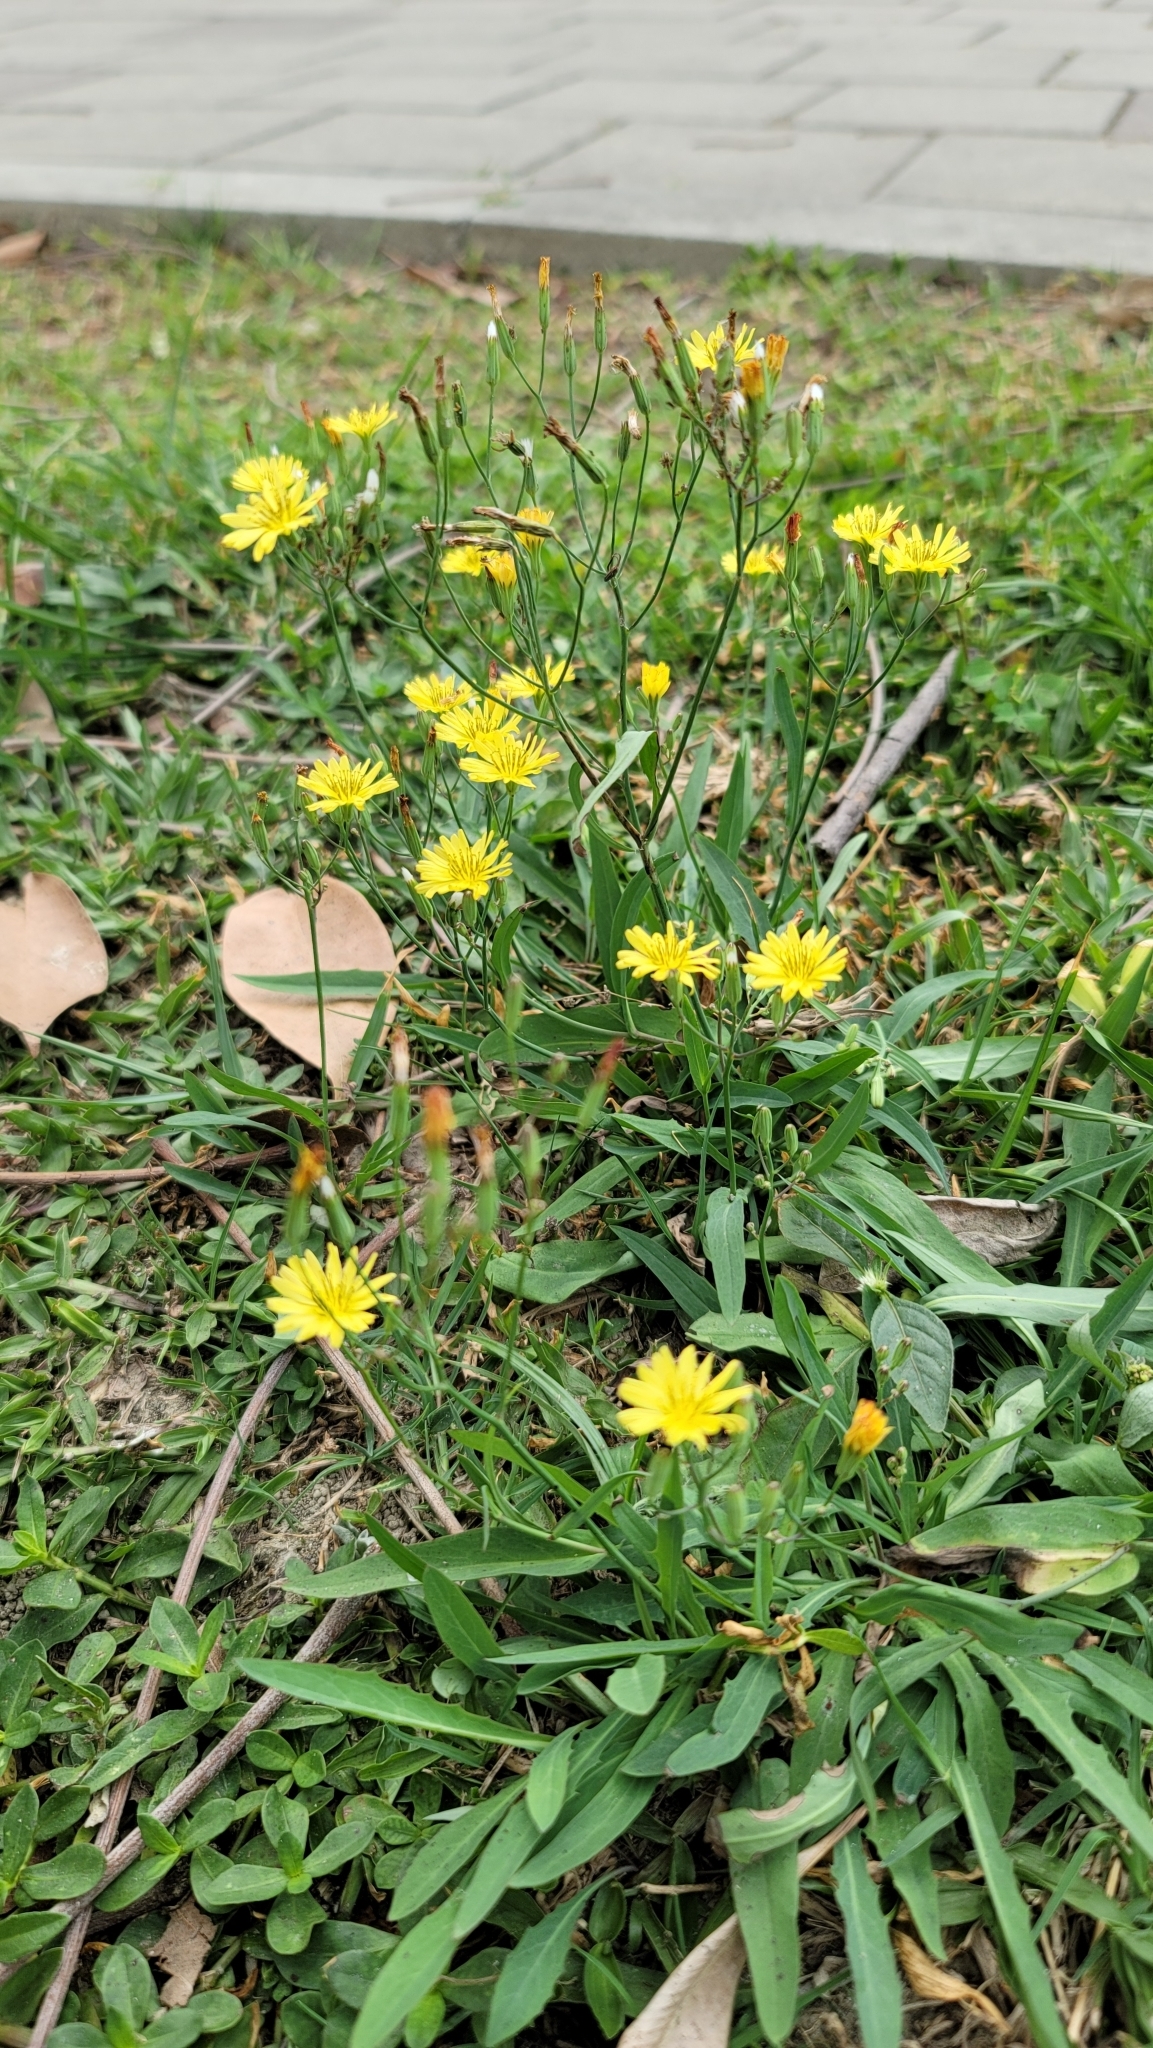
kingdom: Plantae
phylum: Tracheophyta
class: Magnoliopsida
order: Asterales
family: Asteraceae
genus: Ixeris
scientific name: Ixeris chinensis
